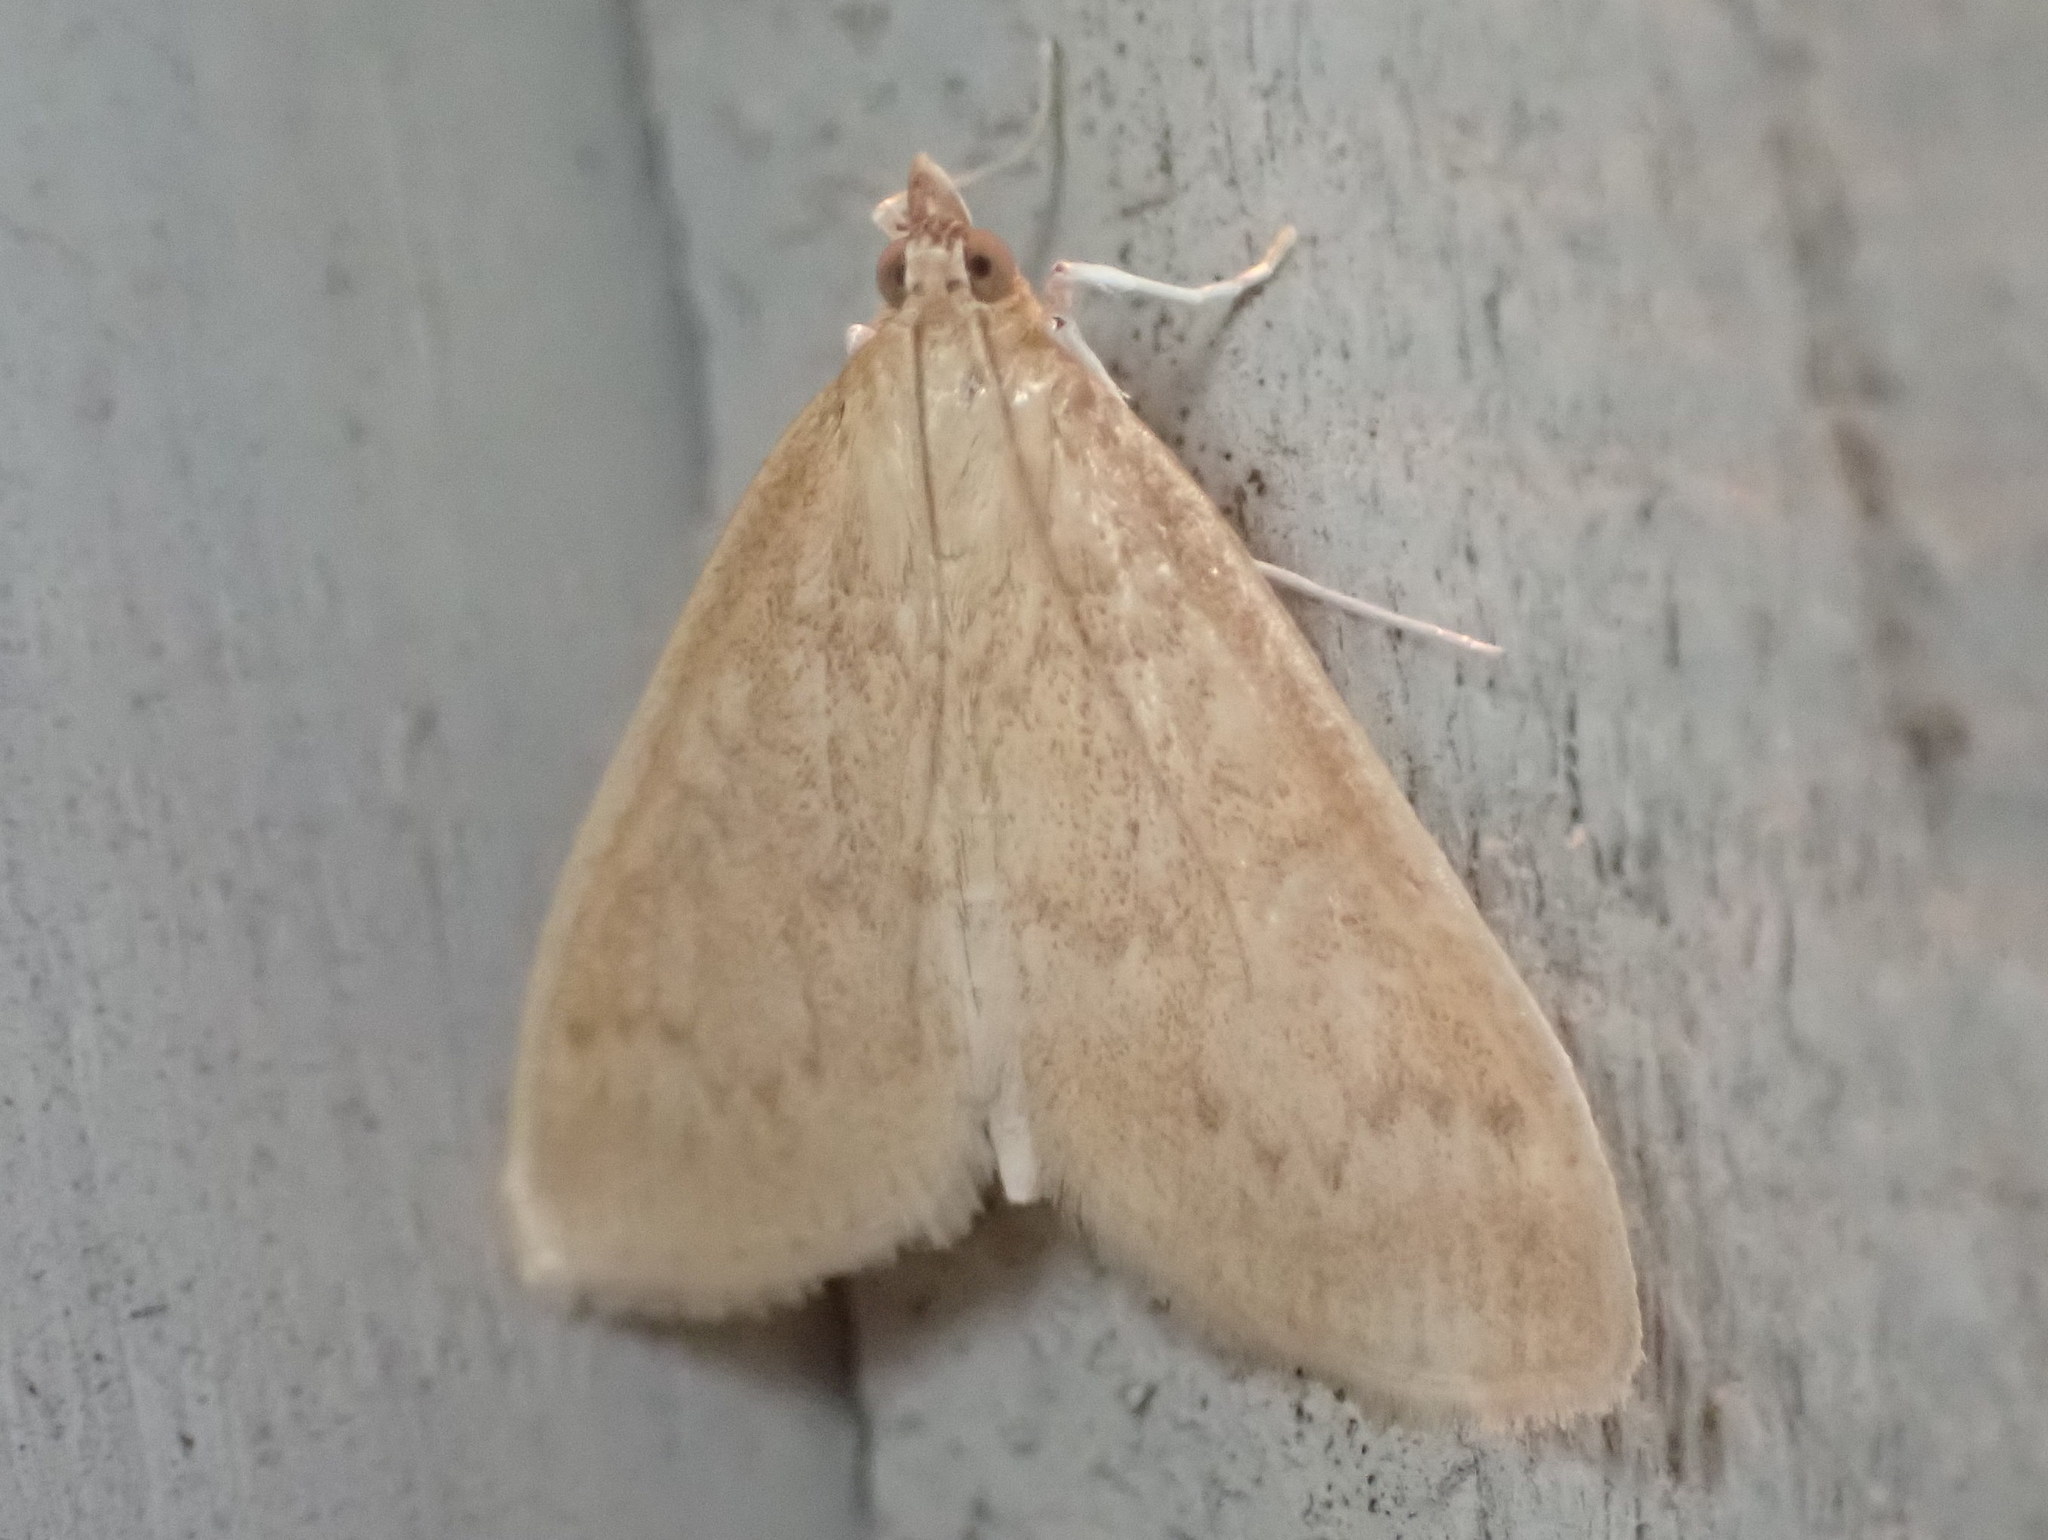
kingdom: Animalia
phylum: Arthropoda
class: Insecta
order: Lepidoptera
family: Crambidae
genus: Anania
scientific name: Anania Framinghamia helvalis
